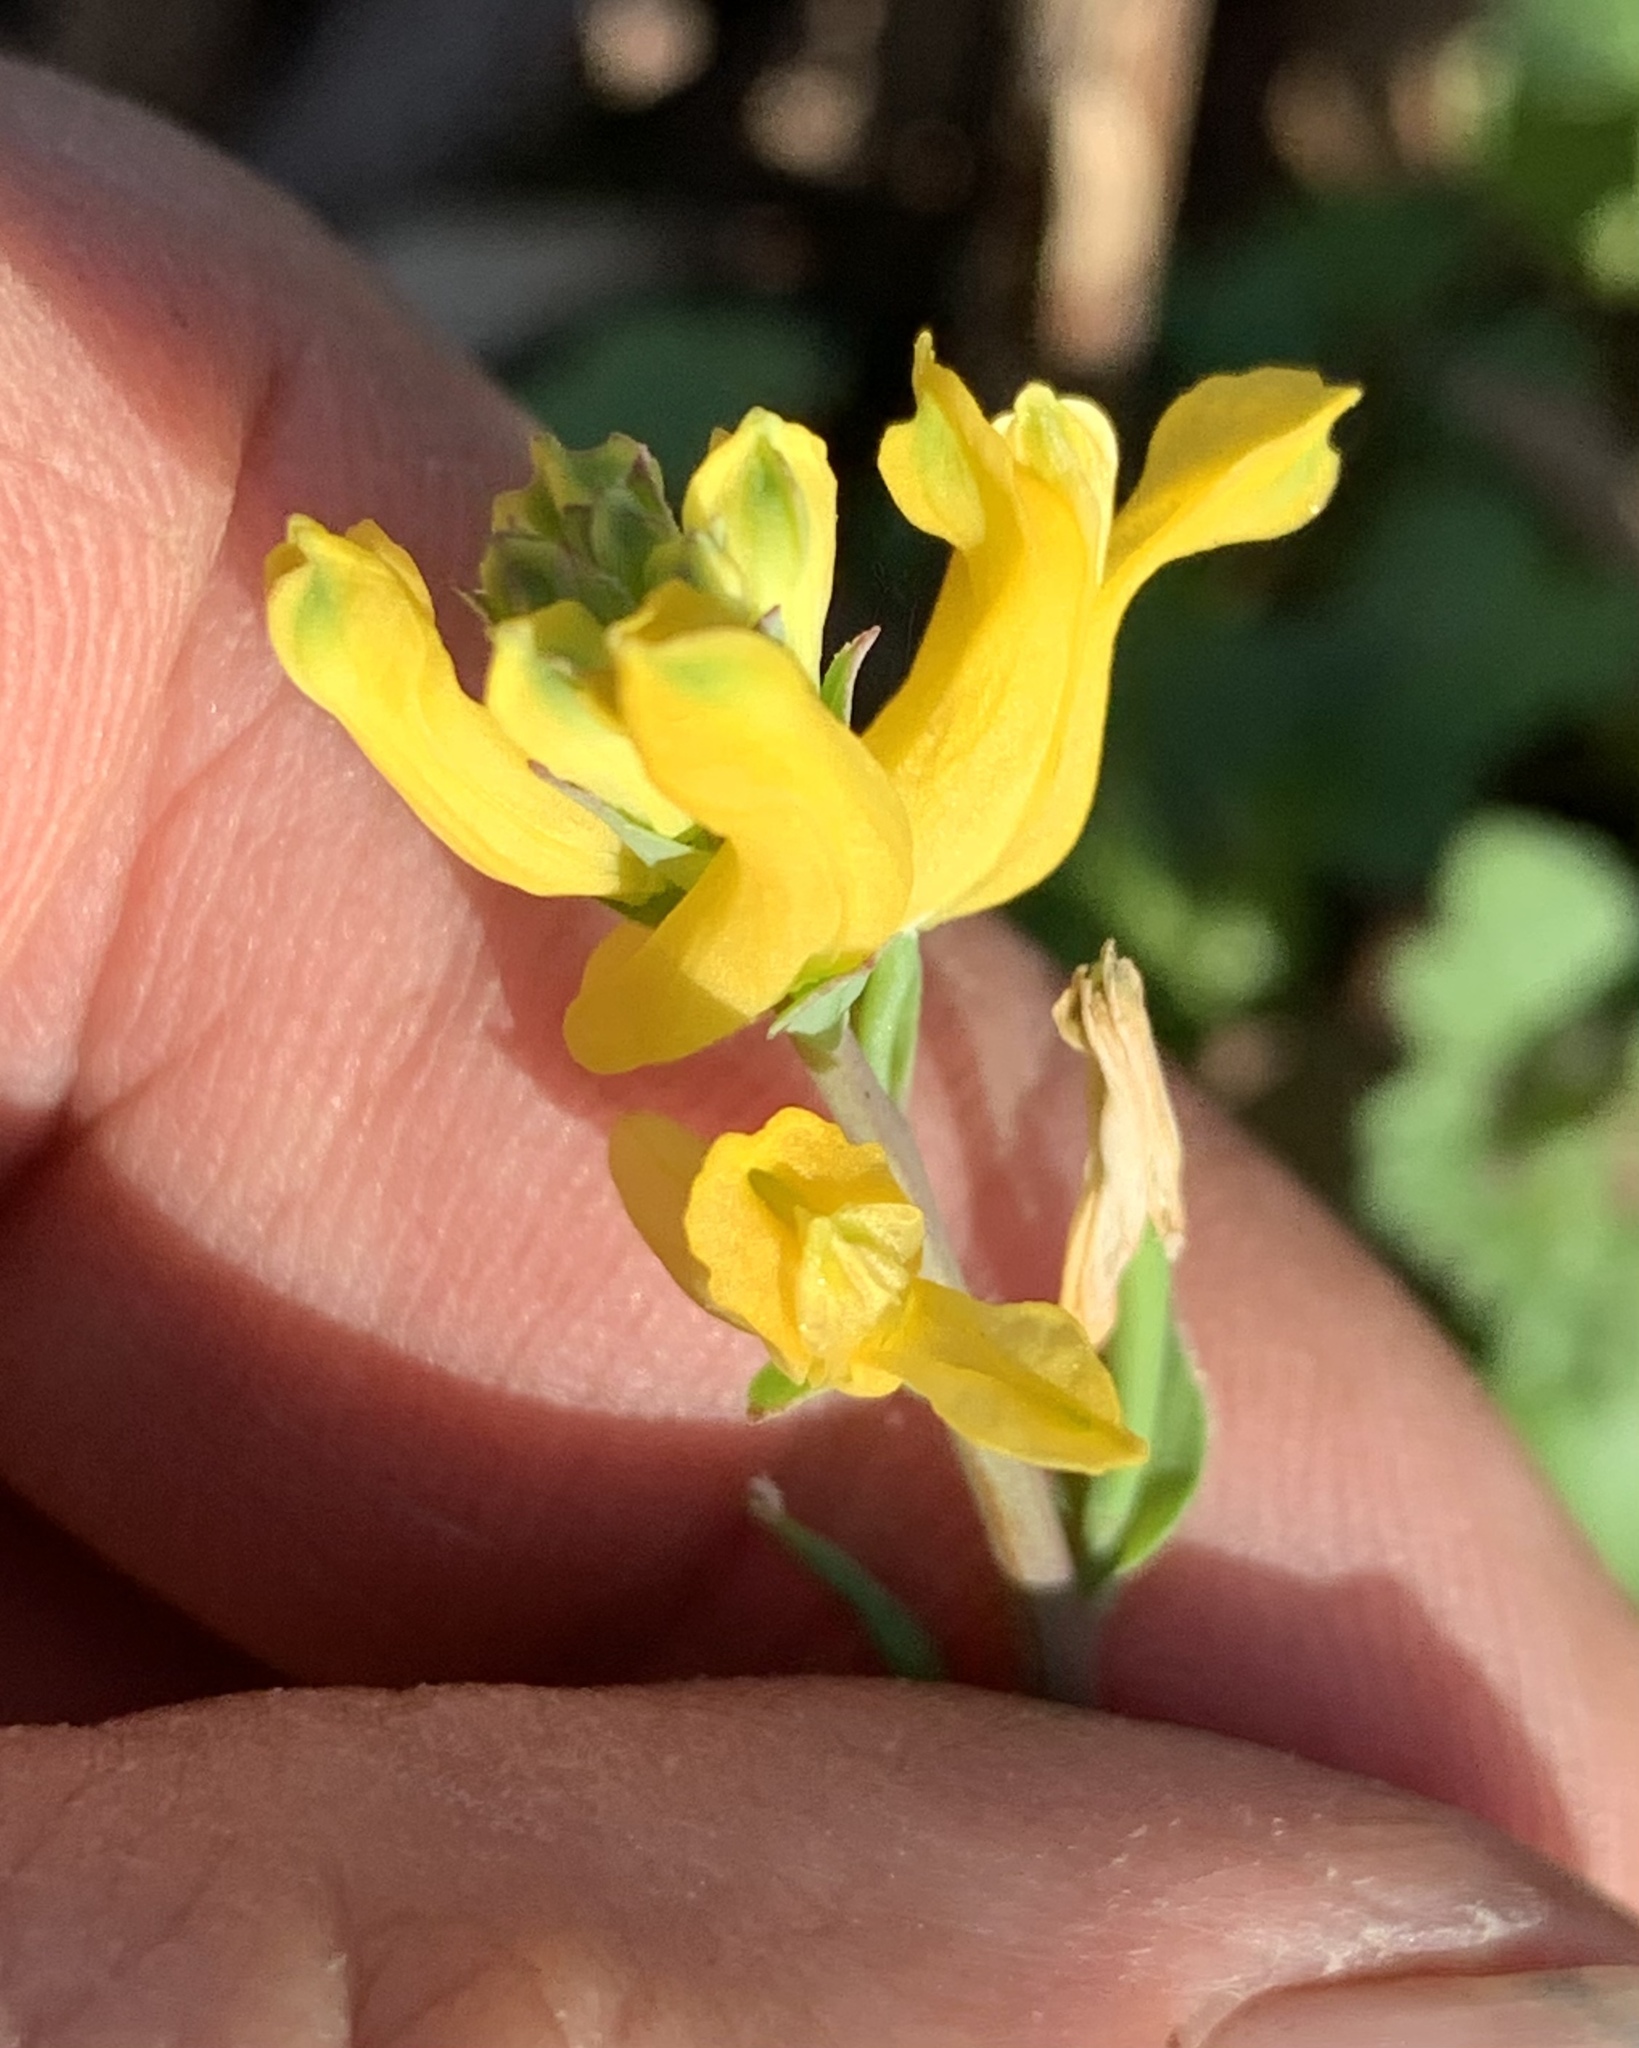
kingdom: Plantae
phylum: Tracheophyta
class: Magnoliopsida
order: Ranunculales
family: Papaveraceae
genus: Corydalis
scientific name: Corydalis micrantha
